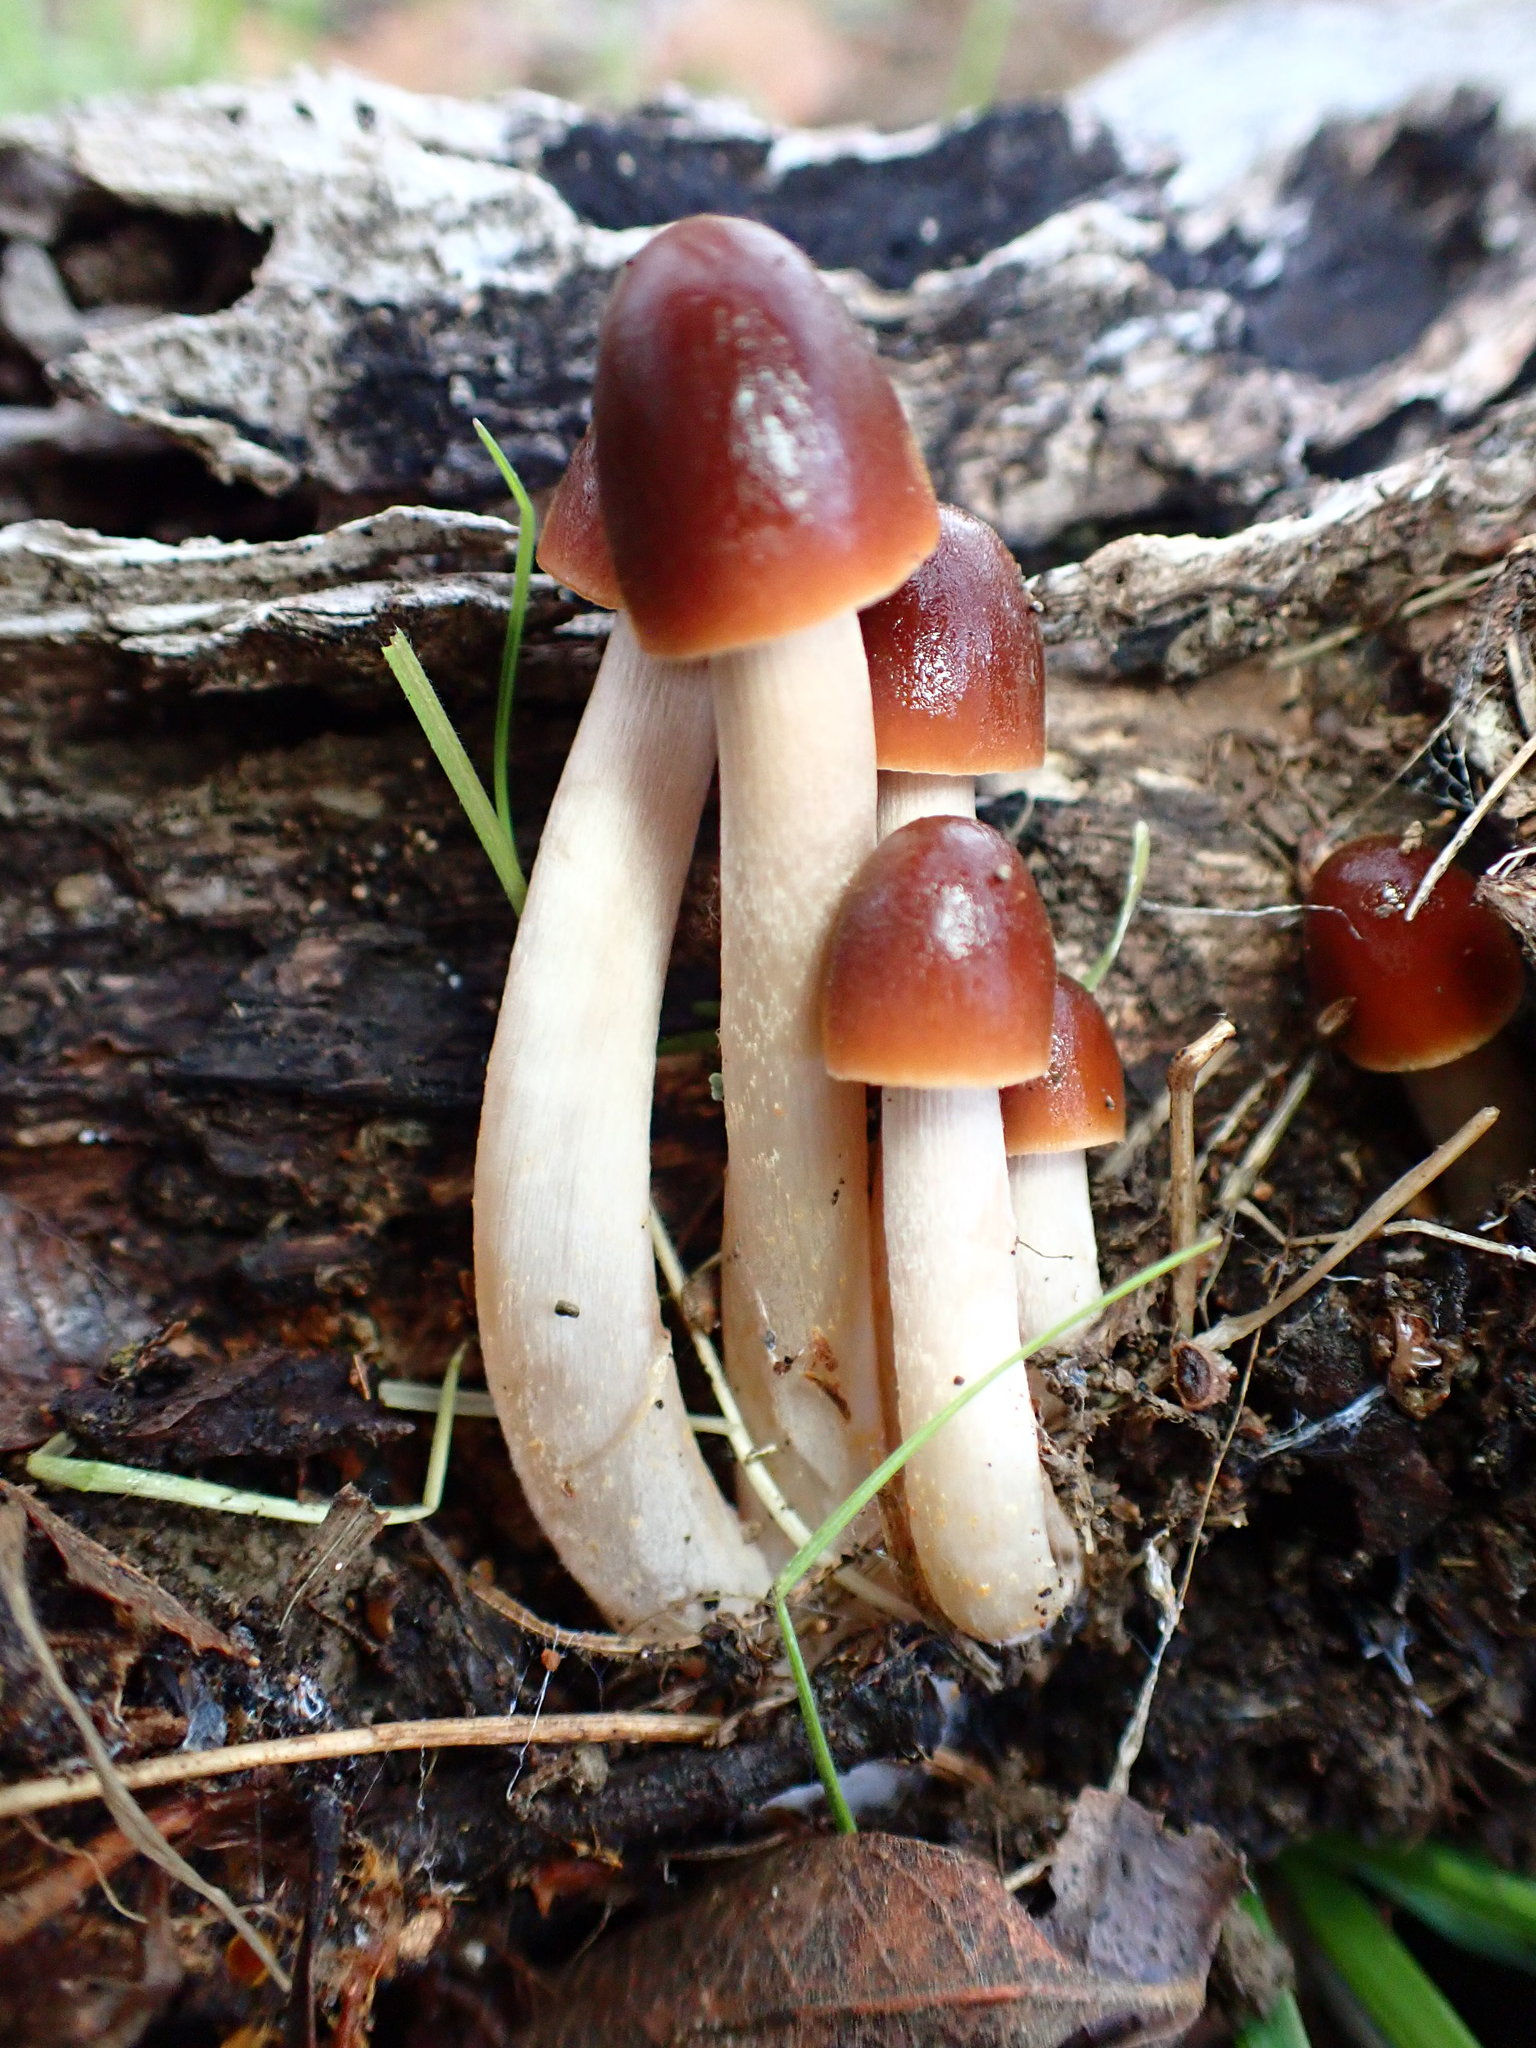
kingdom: Fungi
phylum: Basidiomycota
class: Agaricomycetes
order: Agaricales
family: Psathyrellaceae
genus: Parasola
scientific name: Parasola conopilea
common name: Conical brittlestem
